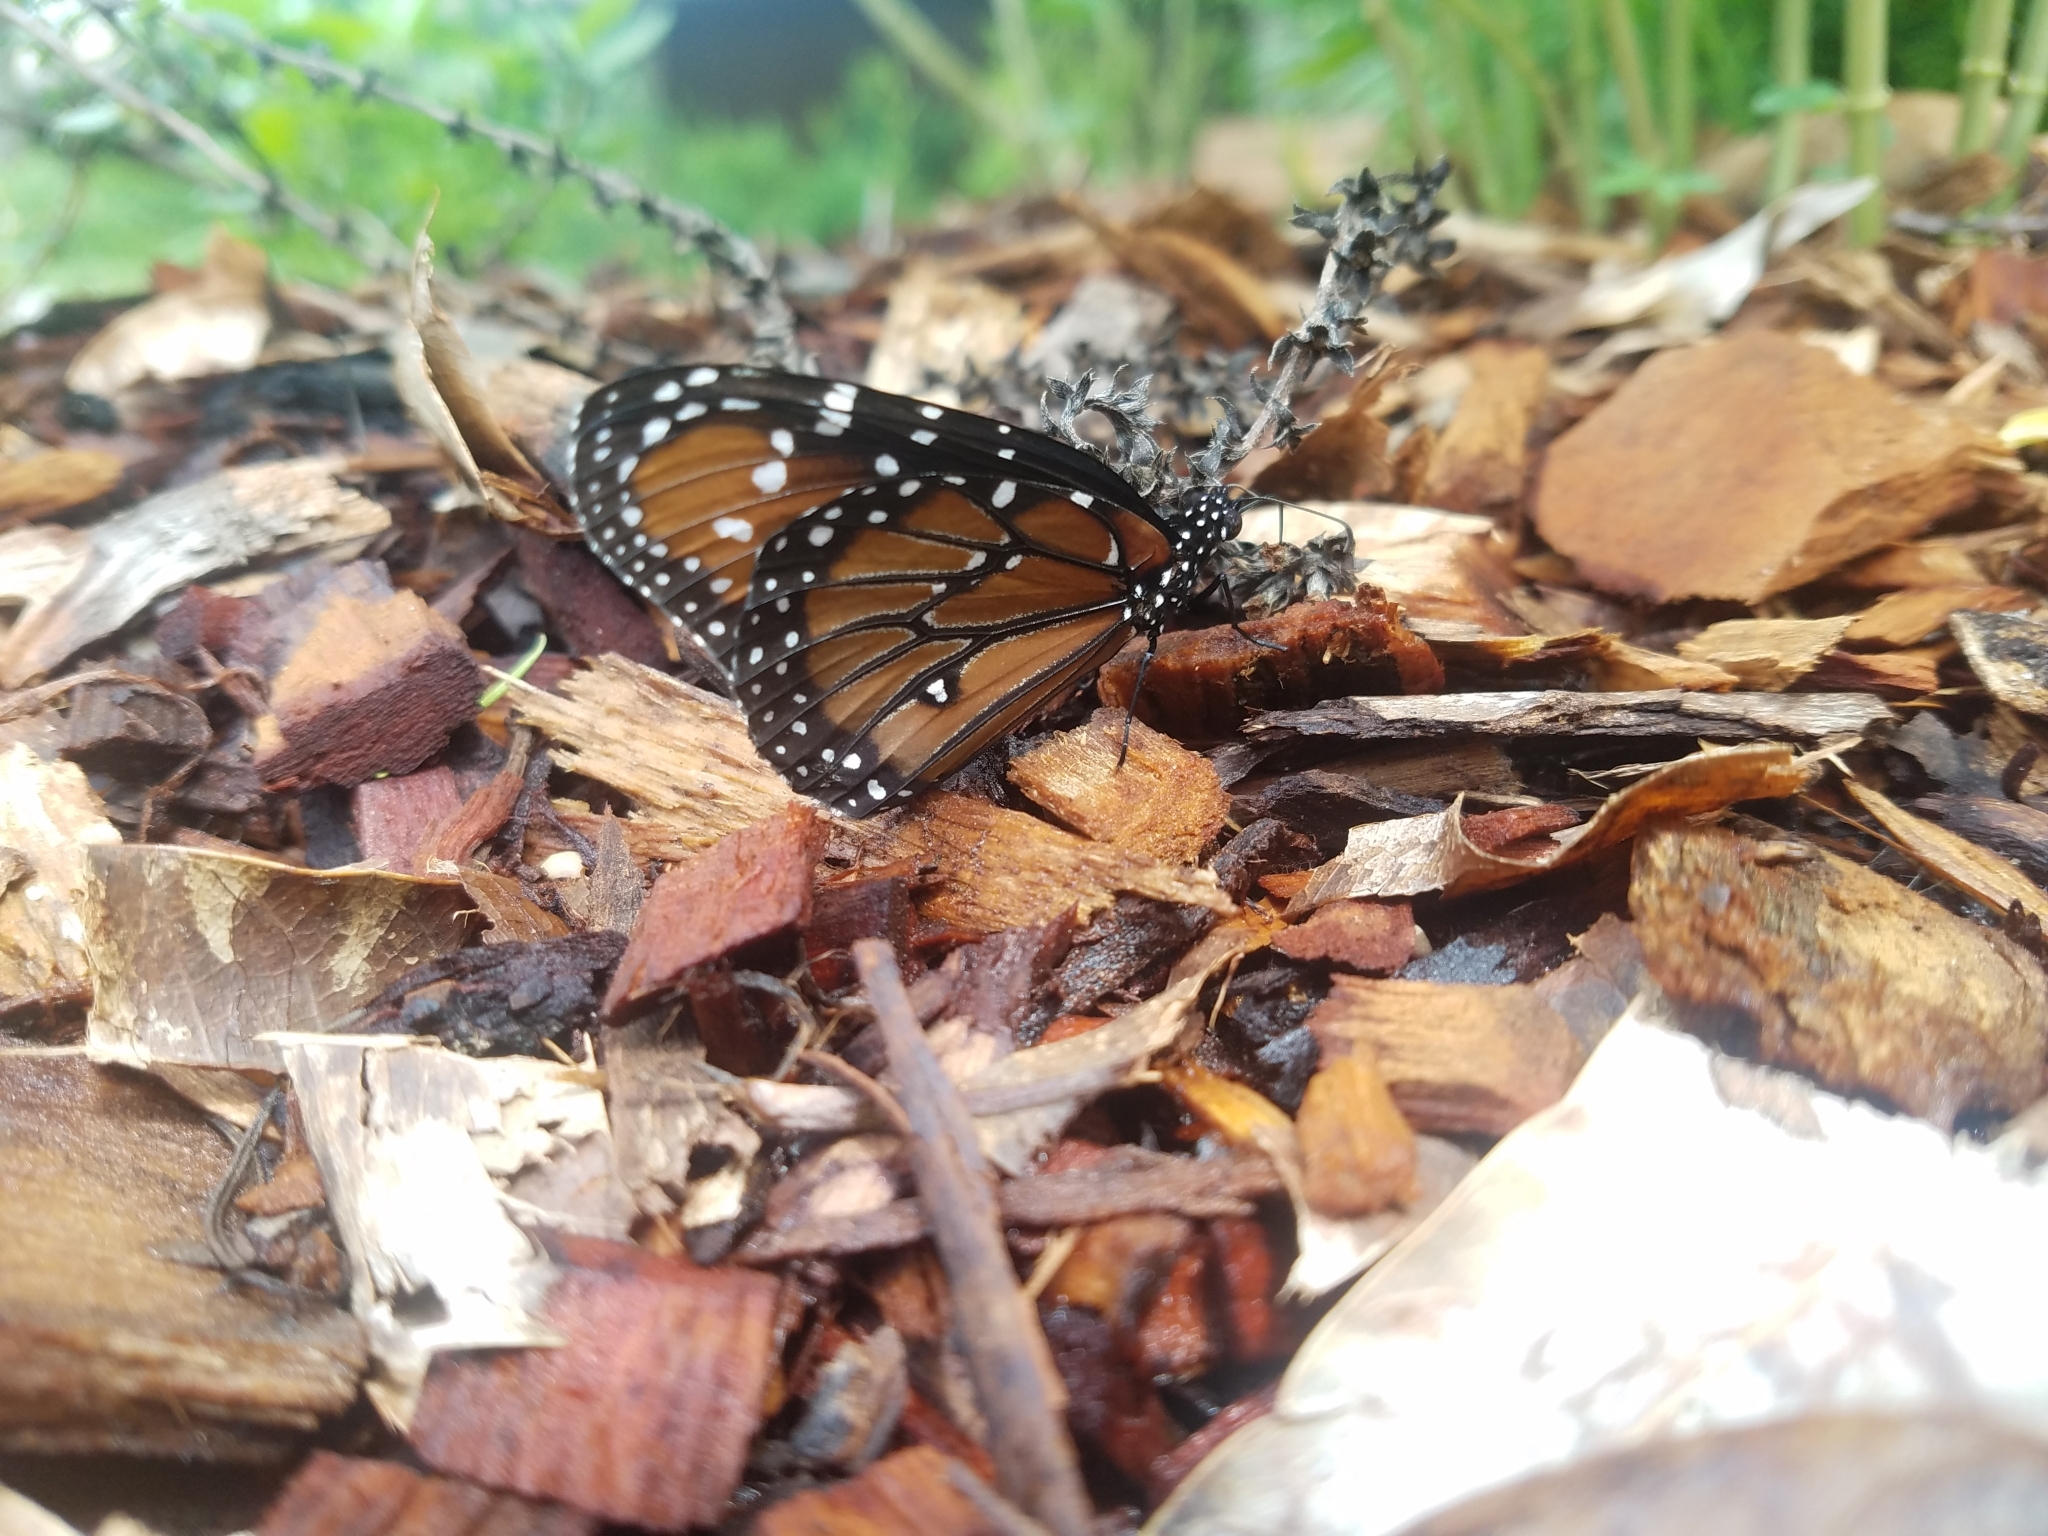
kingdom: Animalia
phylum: Arthropoda
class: Insecta
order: Lepidoptera
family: Nymphalidae
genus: Danaus
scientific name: Danaus gilippus
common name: Queen
